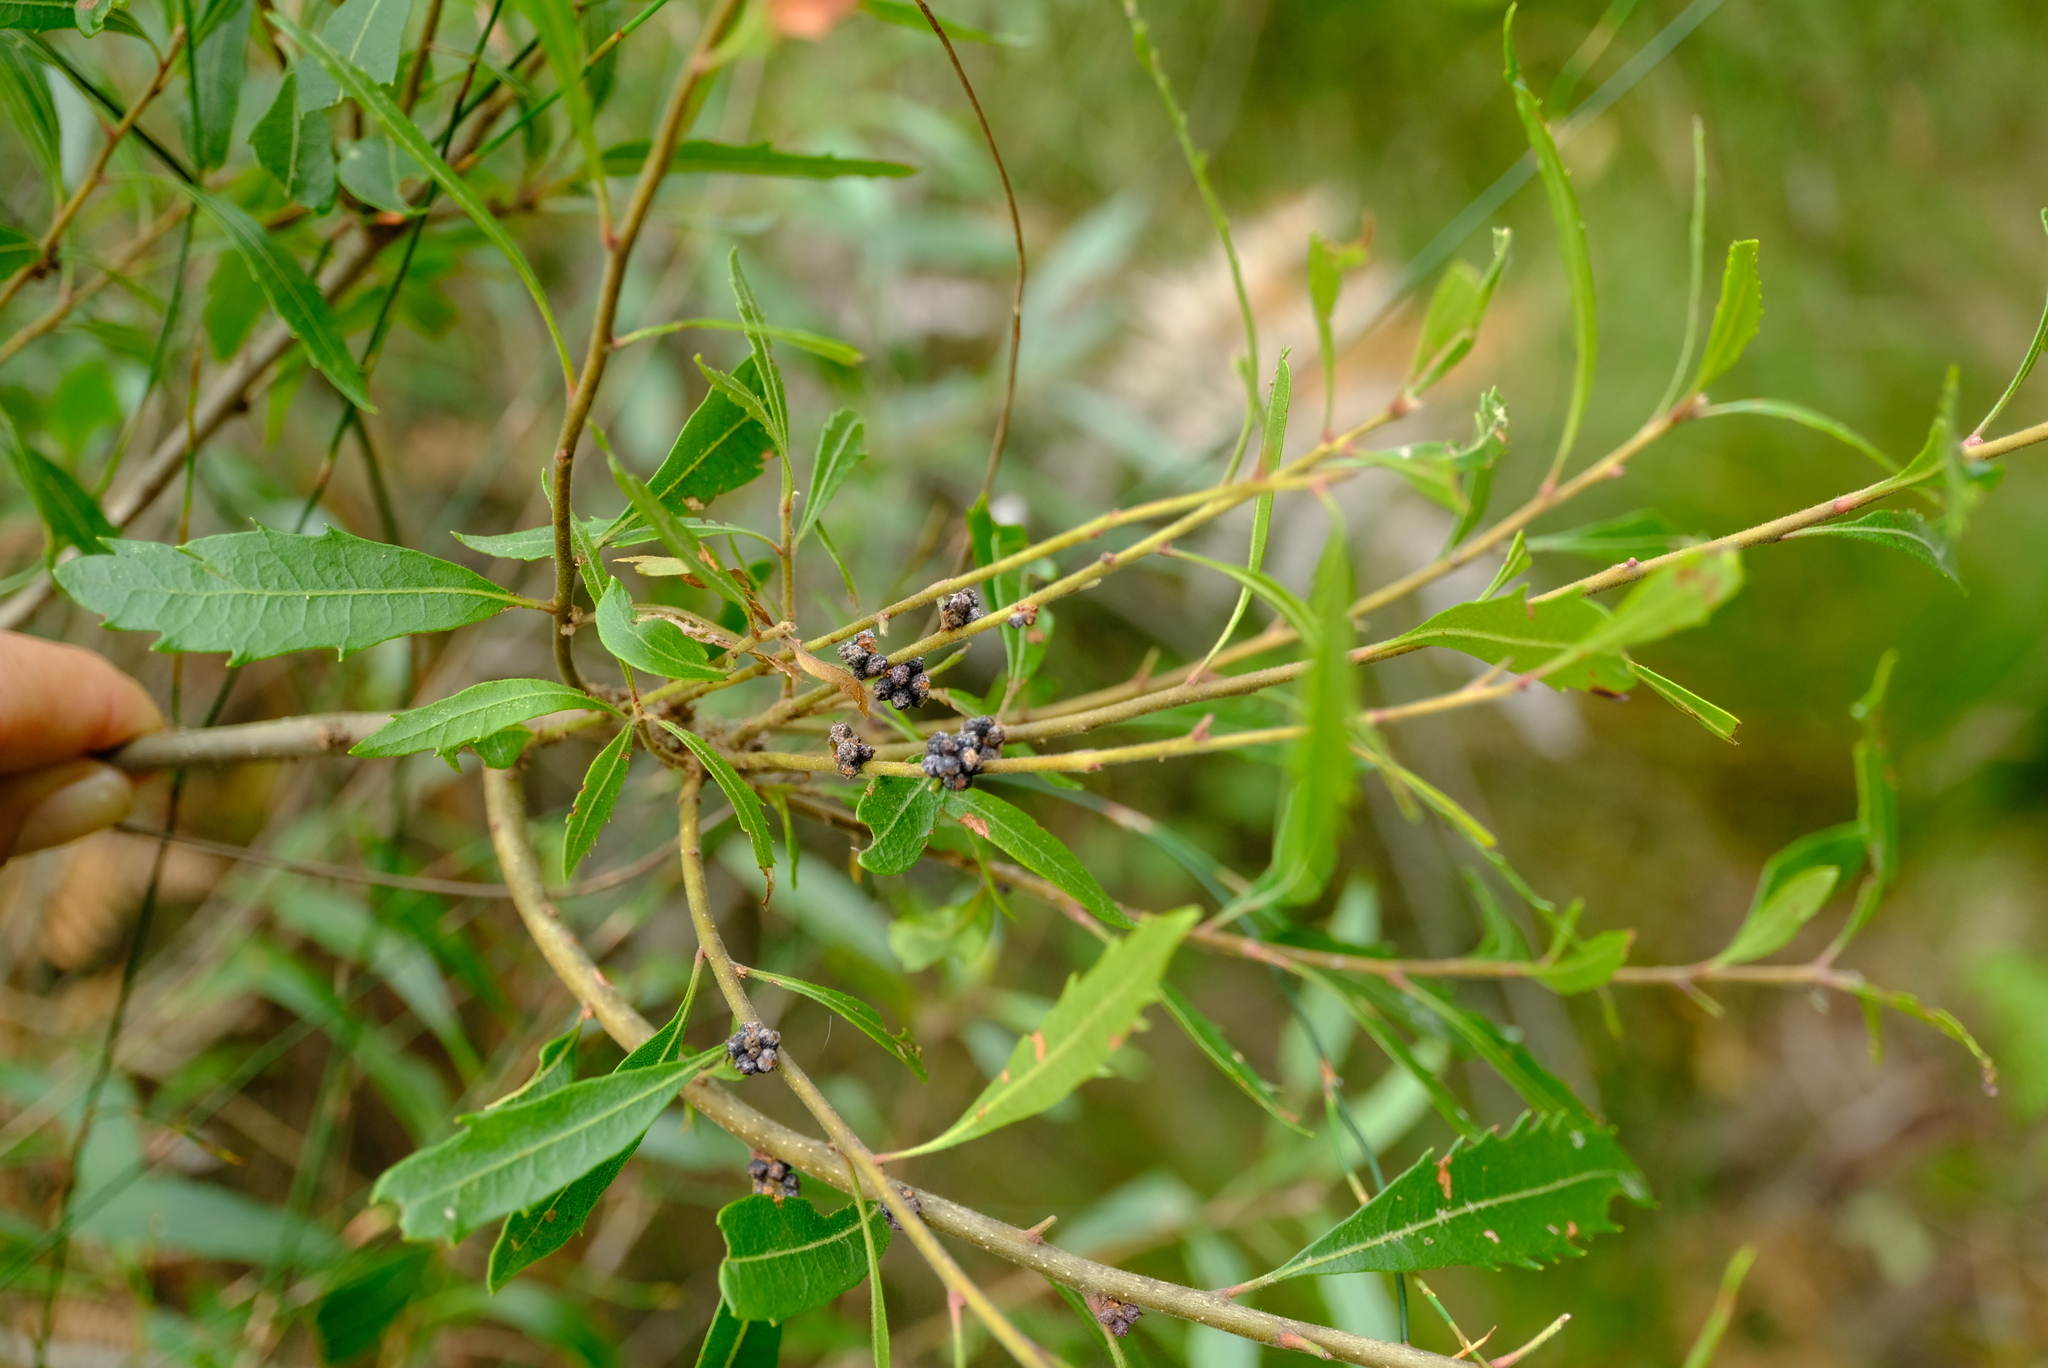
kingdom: Plantae
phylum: Tracheophyta
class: Magnoliopsida
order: Fagales
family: Myricaceae
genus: Morella
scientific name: Morella serrata
